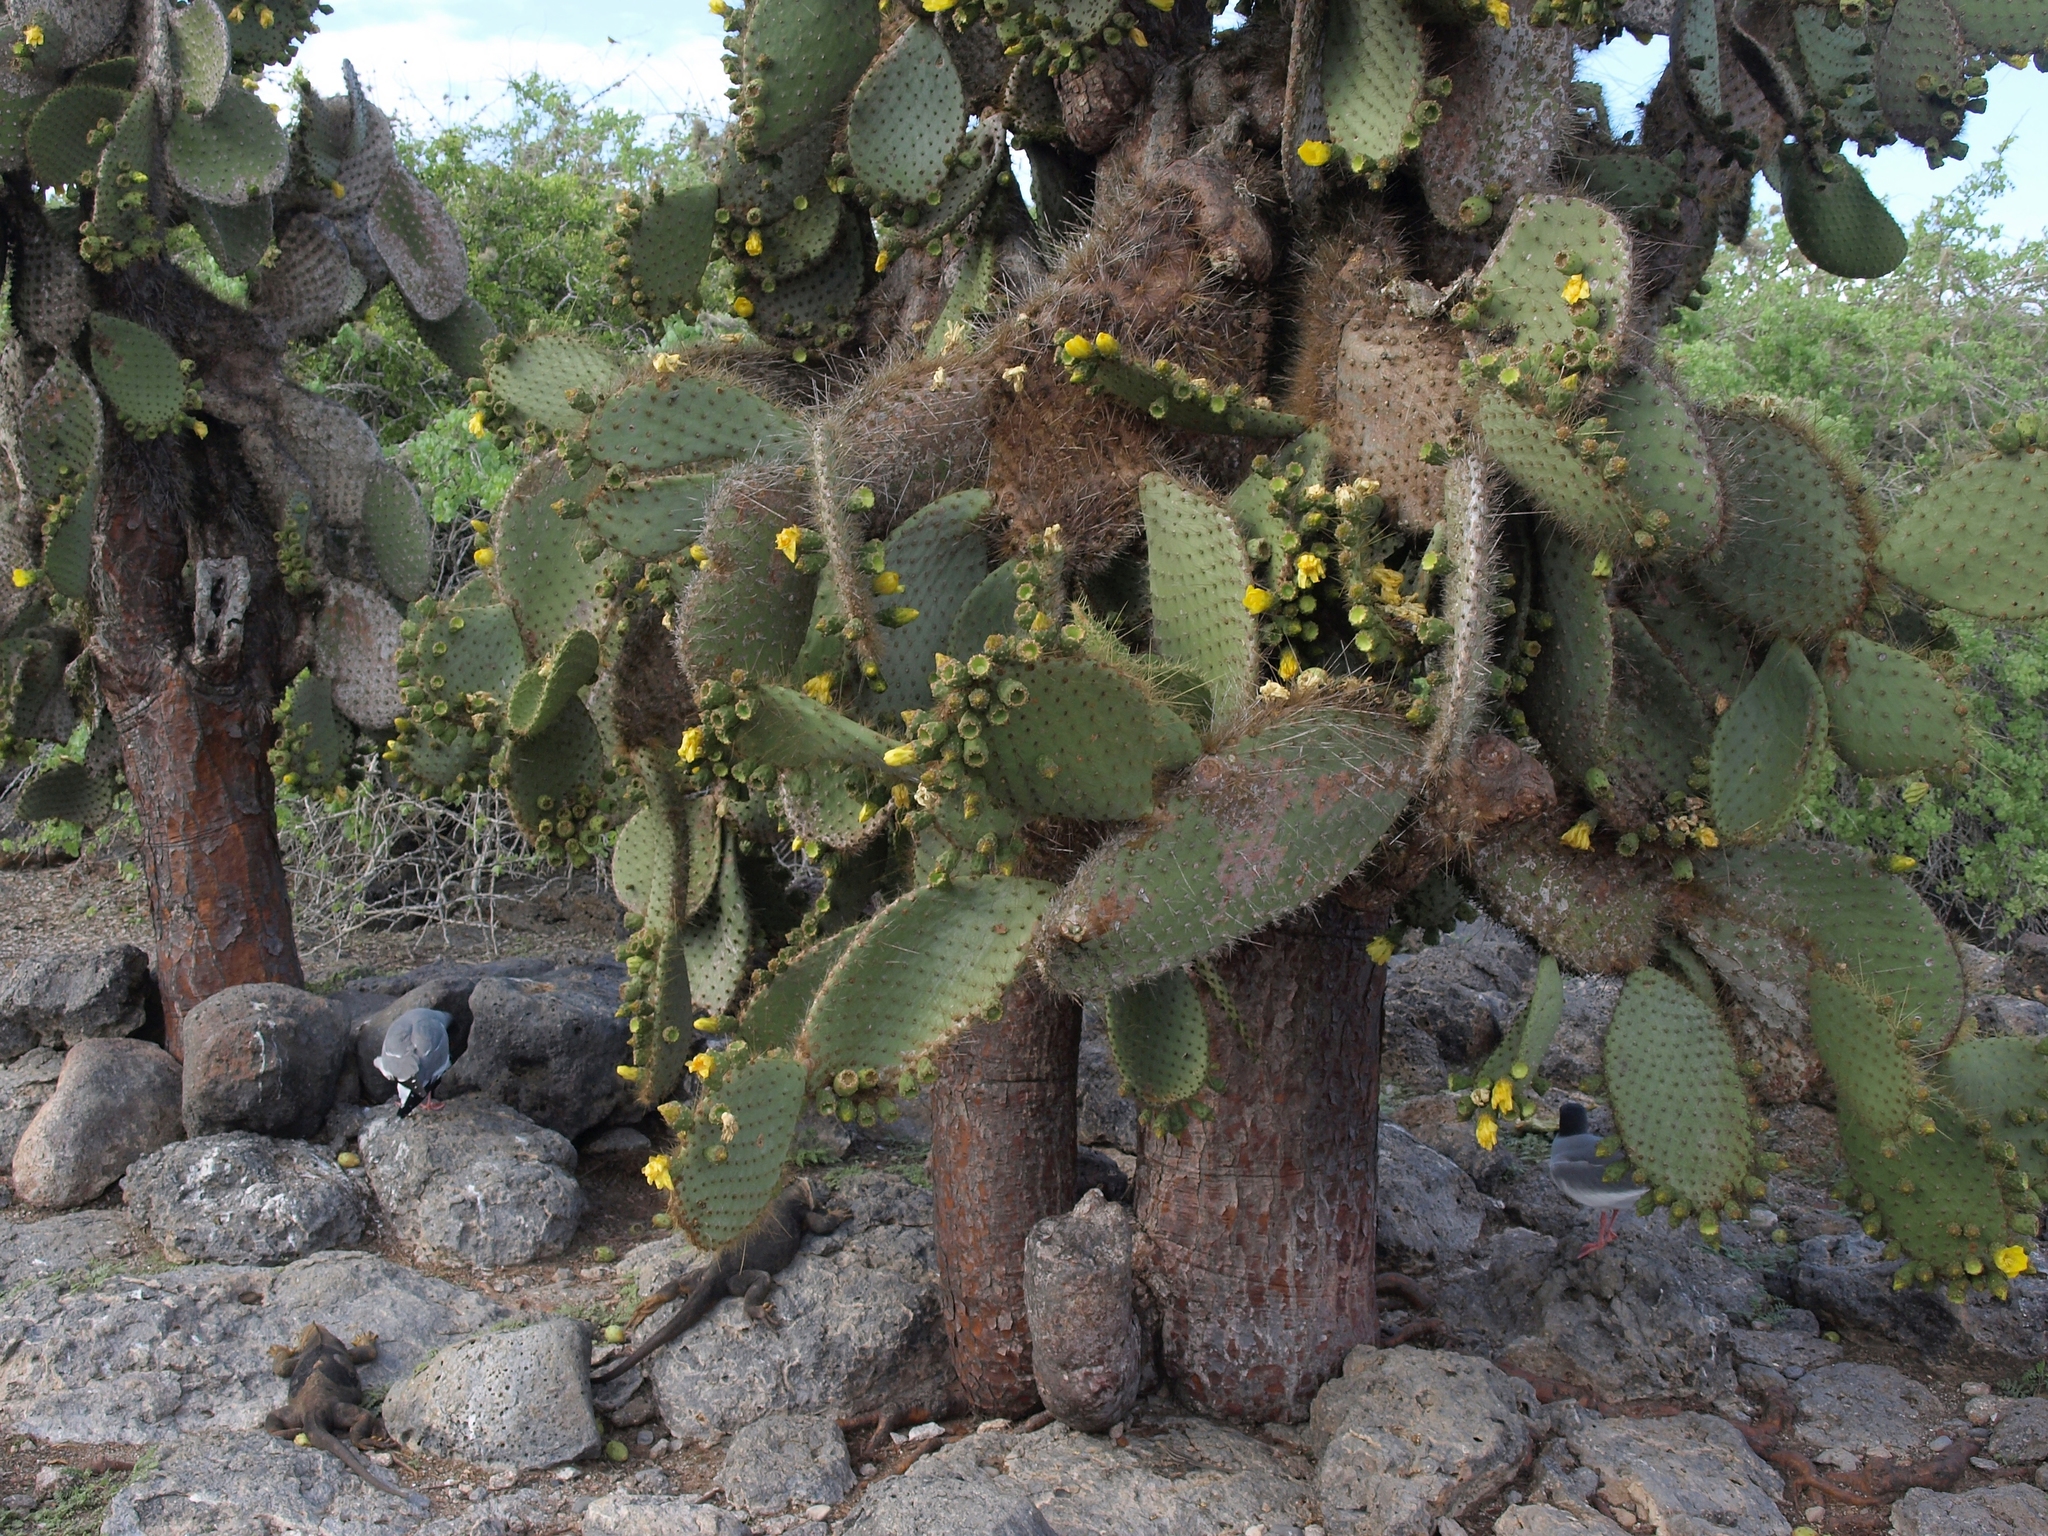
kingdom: Plantae
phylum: Tracheophyta
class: Magnoliopsida
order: Caryophyllales
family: Cactaceae
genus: Opuntia
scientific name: Opuntia galapageia
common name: Galápagos prickly pear
